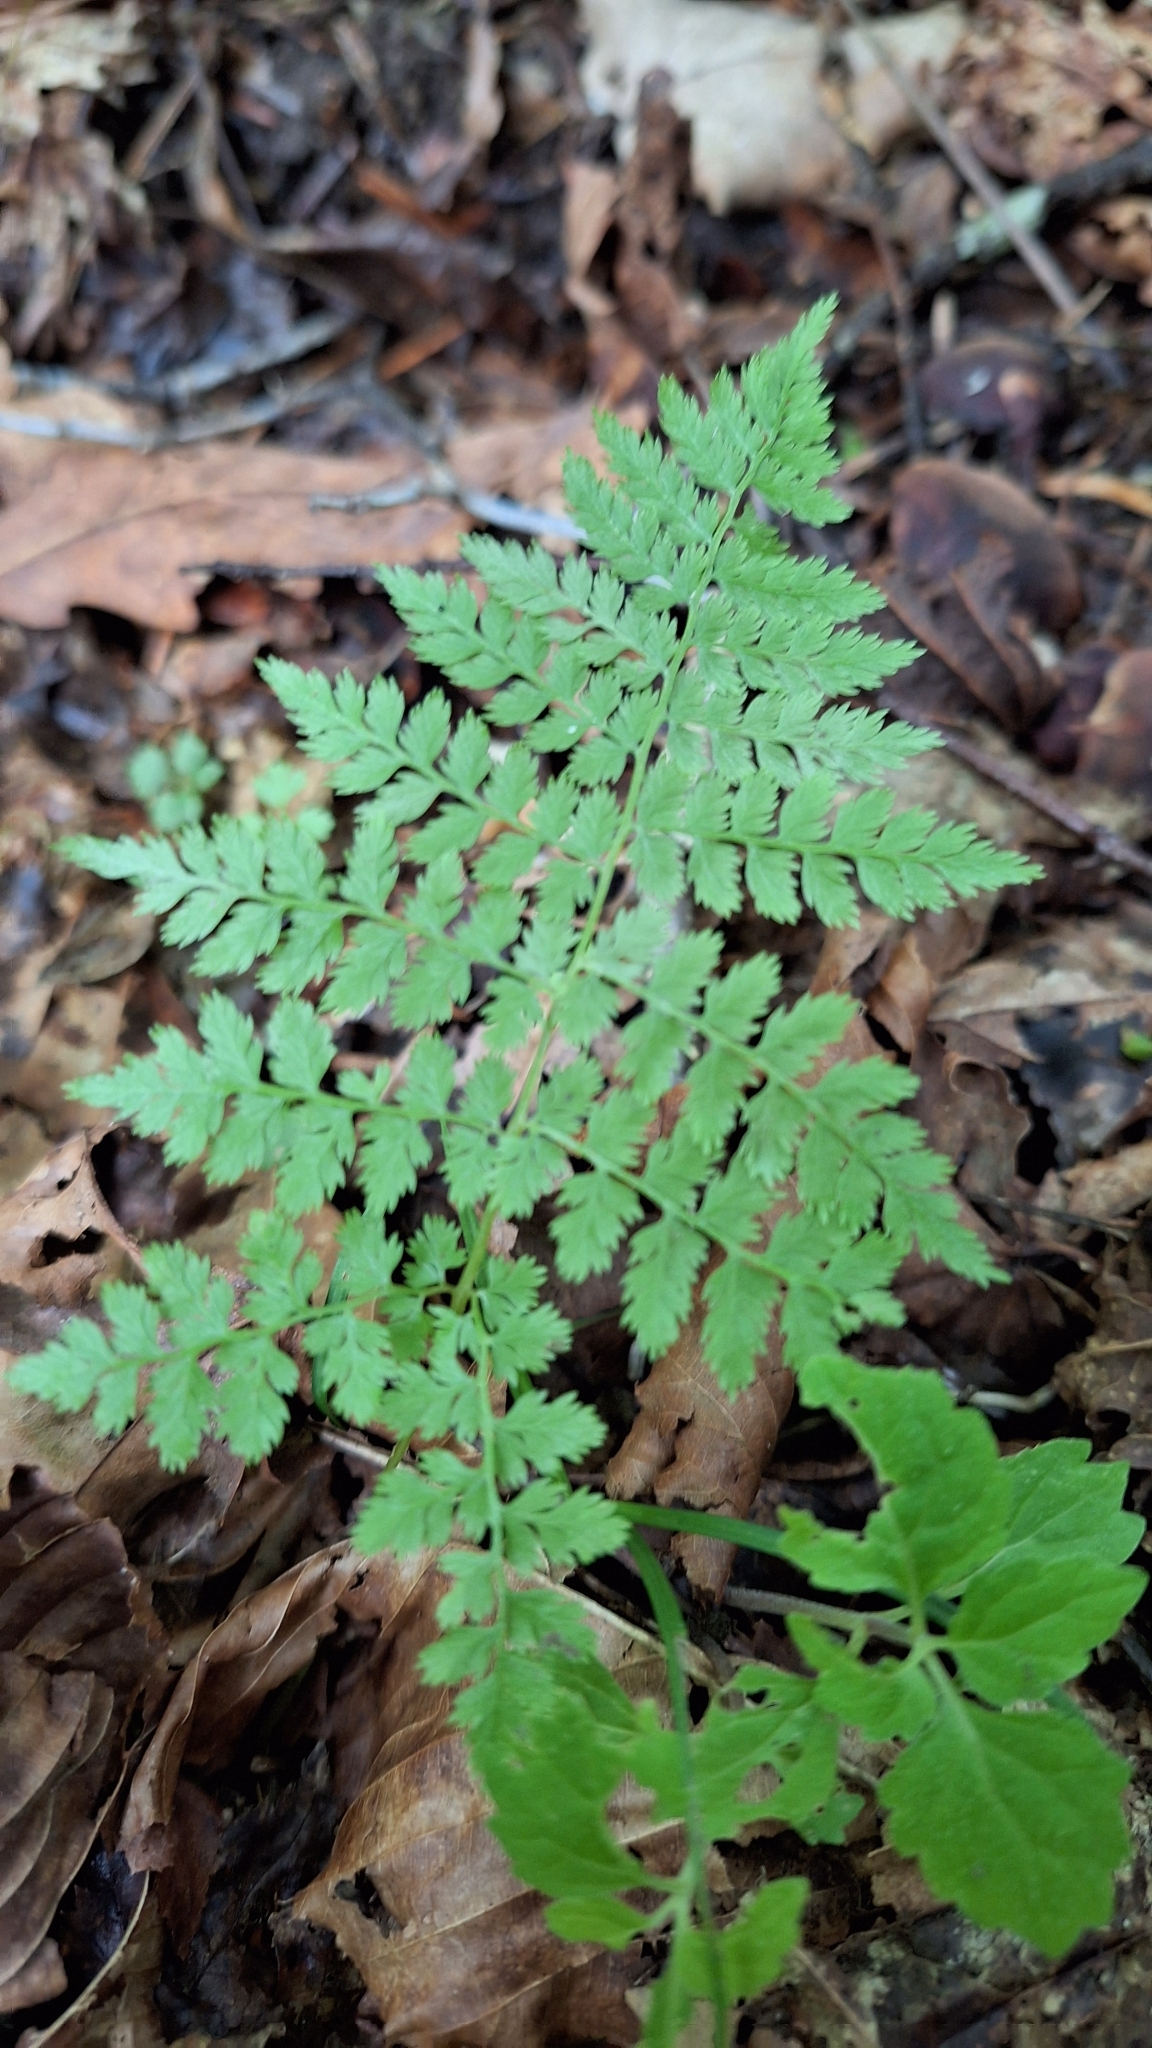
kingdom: Plantae
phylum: Tracheophyta
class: Polypodiopsida
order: Polypodiales
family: Athyriaceae
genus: Athyrium
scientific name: Athyrium spinulosum
